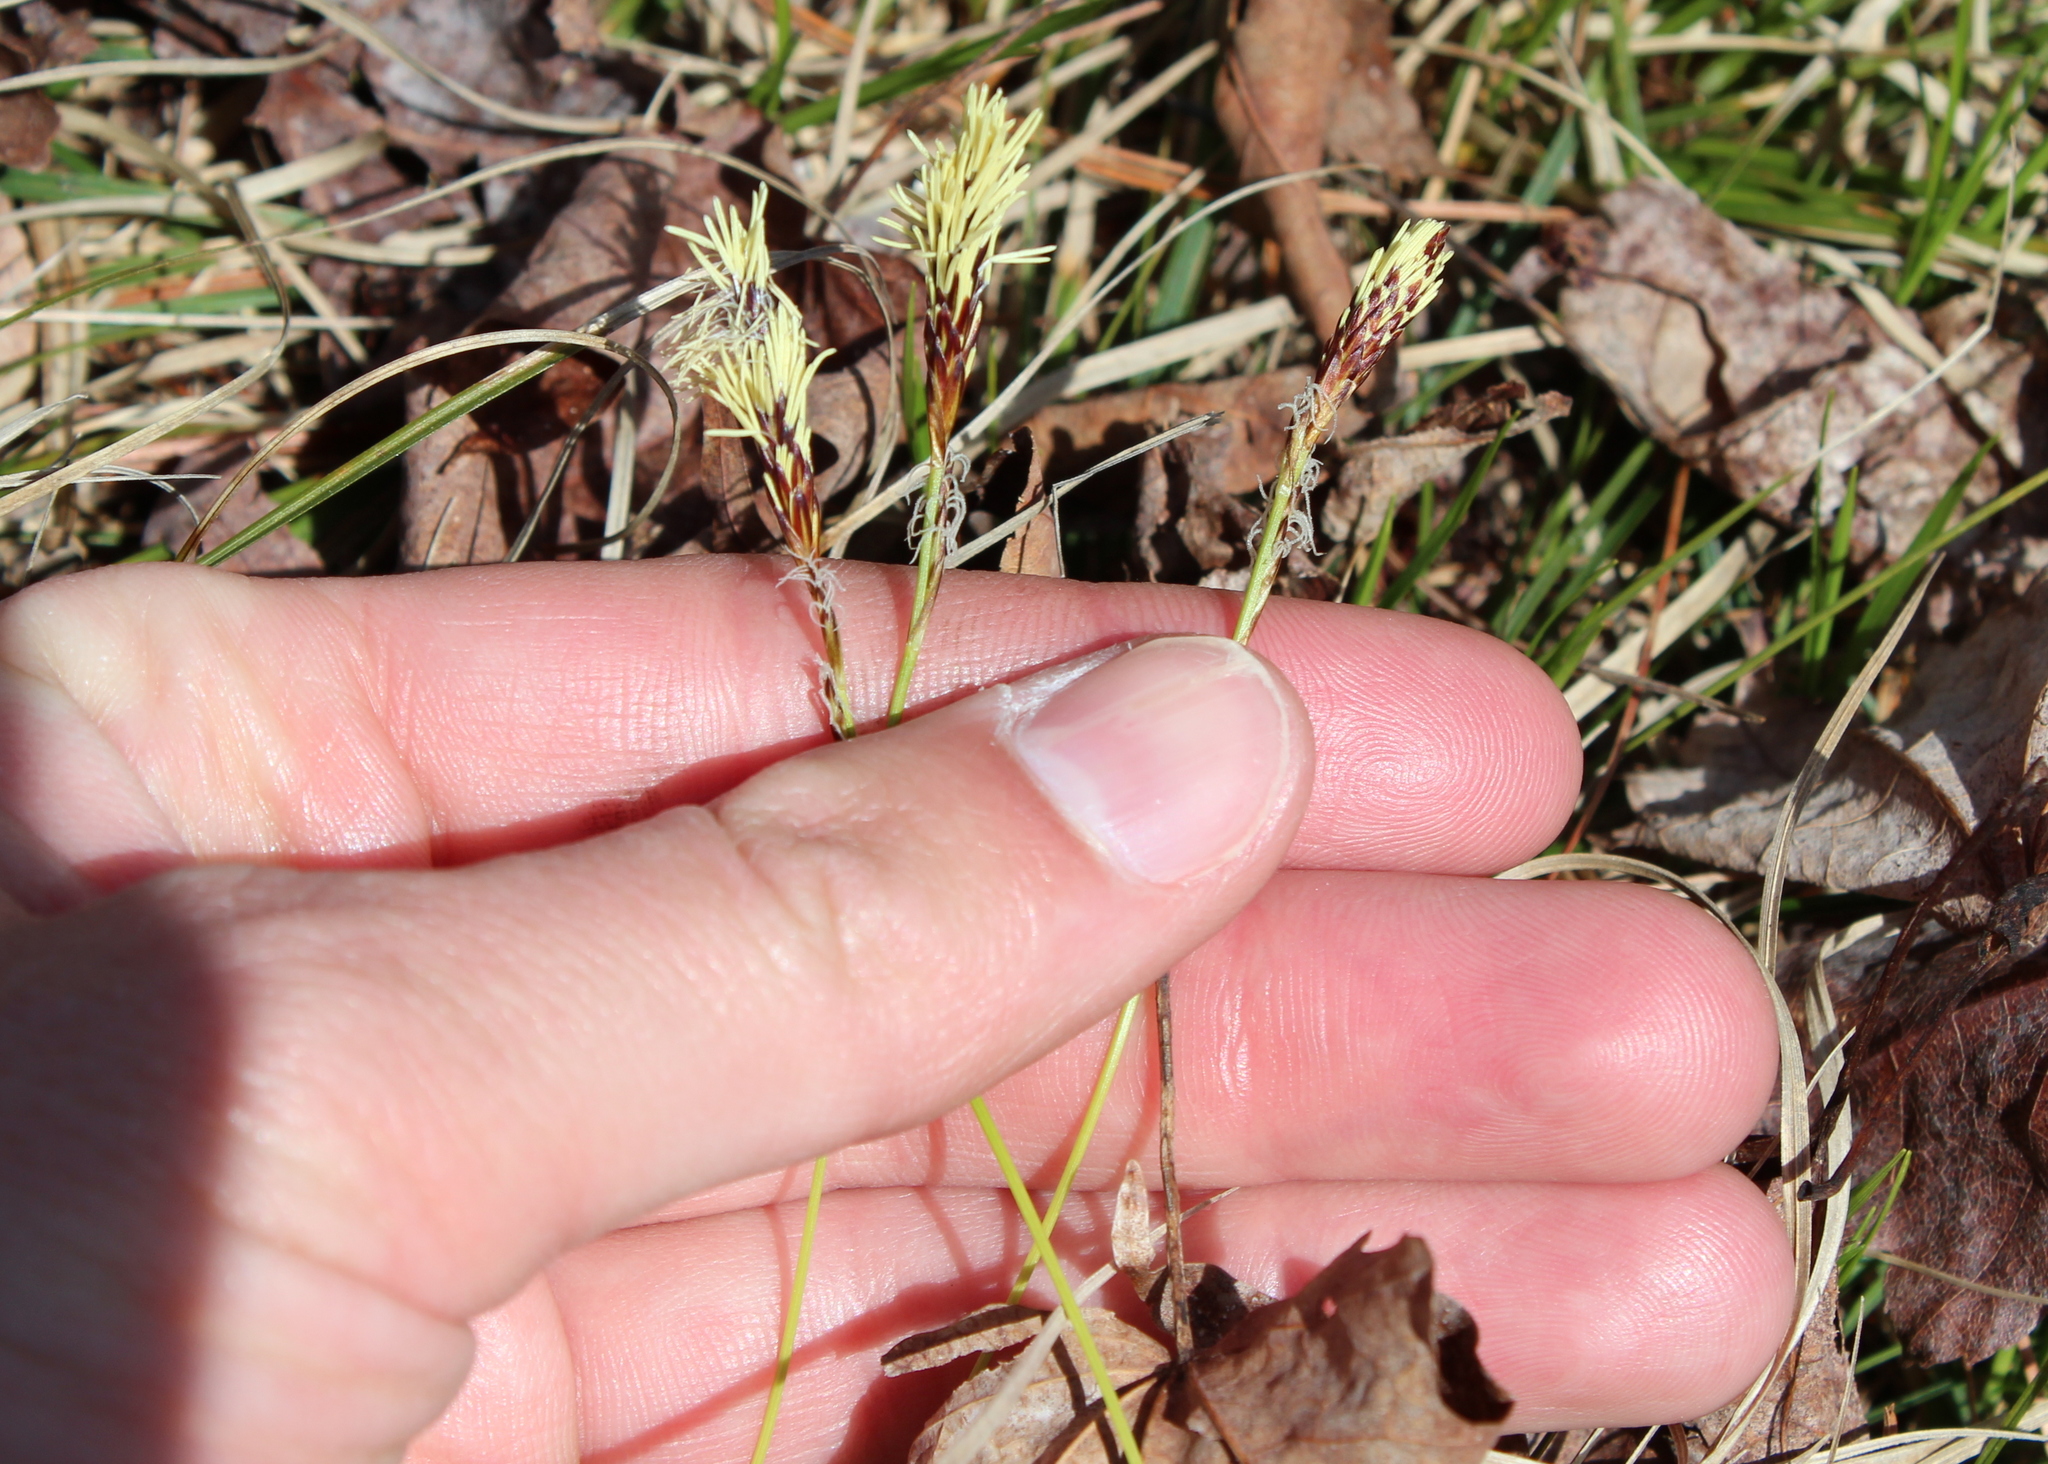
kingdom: Plantae
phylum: Tracheophyta
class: Liliopsida
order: Poales
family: Cyperaceae
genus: Carex
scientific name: Carex pensylvanica
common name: Common oak sedge
